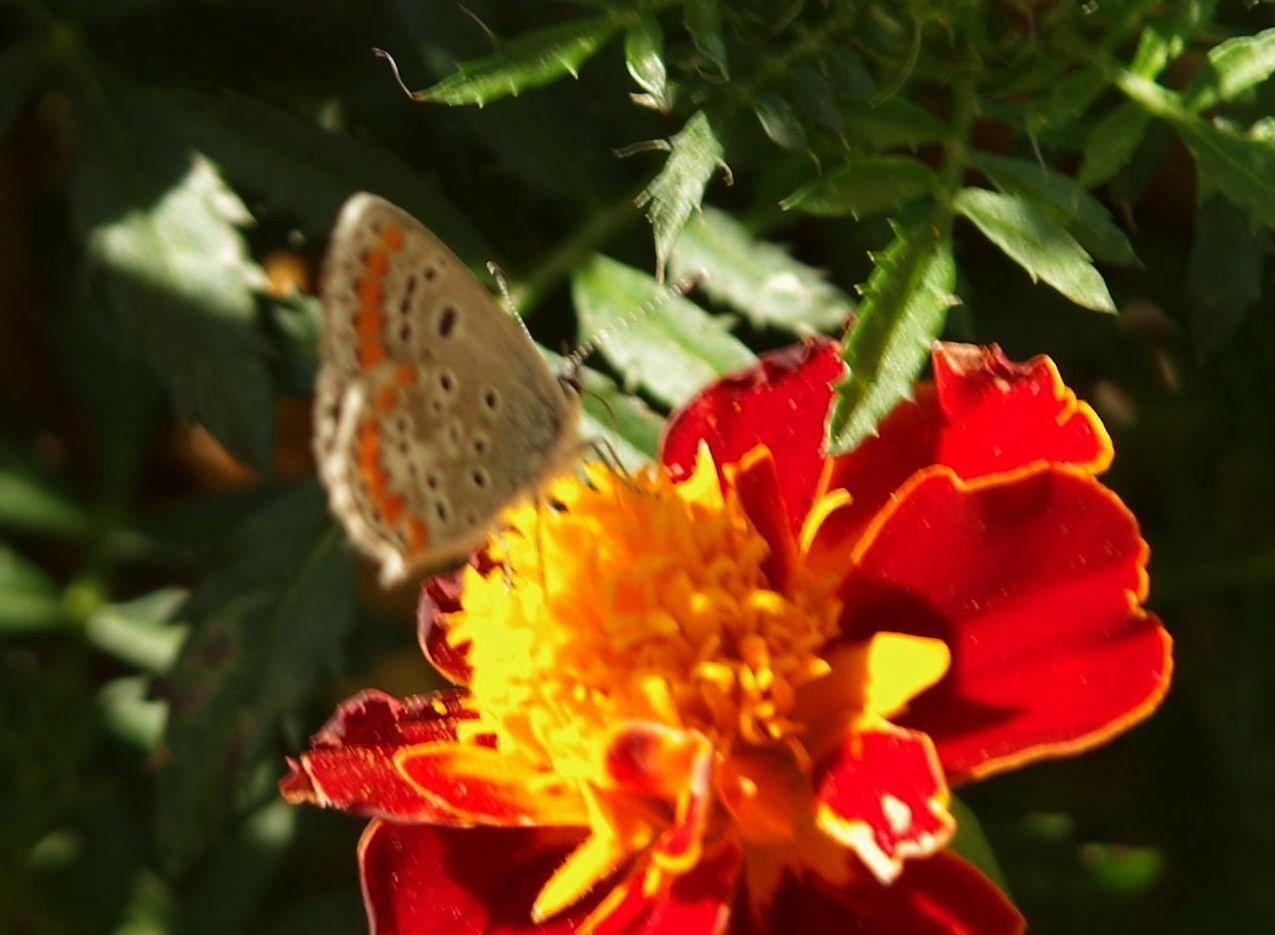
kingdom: Animalia
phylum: Arthropoda
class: Insecta
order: Lepidoptera
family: Lycaenidae
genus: Aricia
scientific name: Aricia agestis
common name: Brown argus
